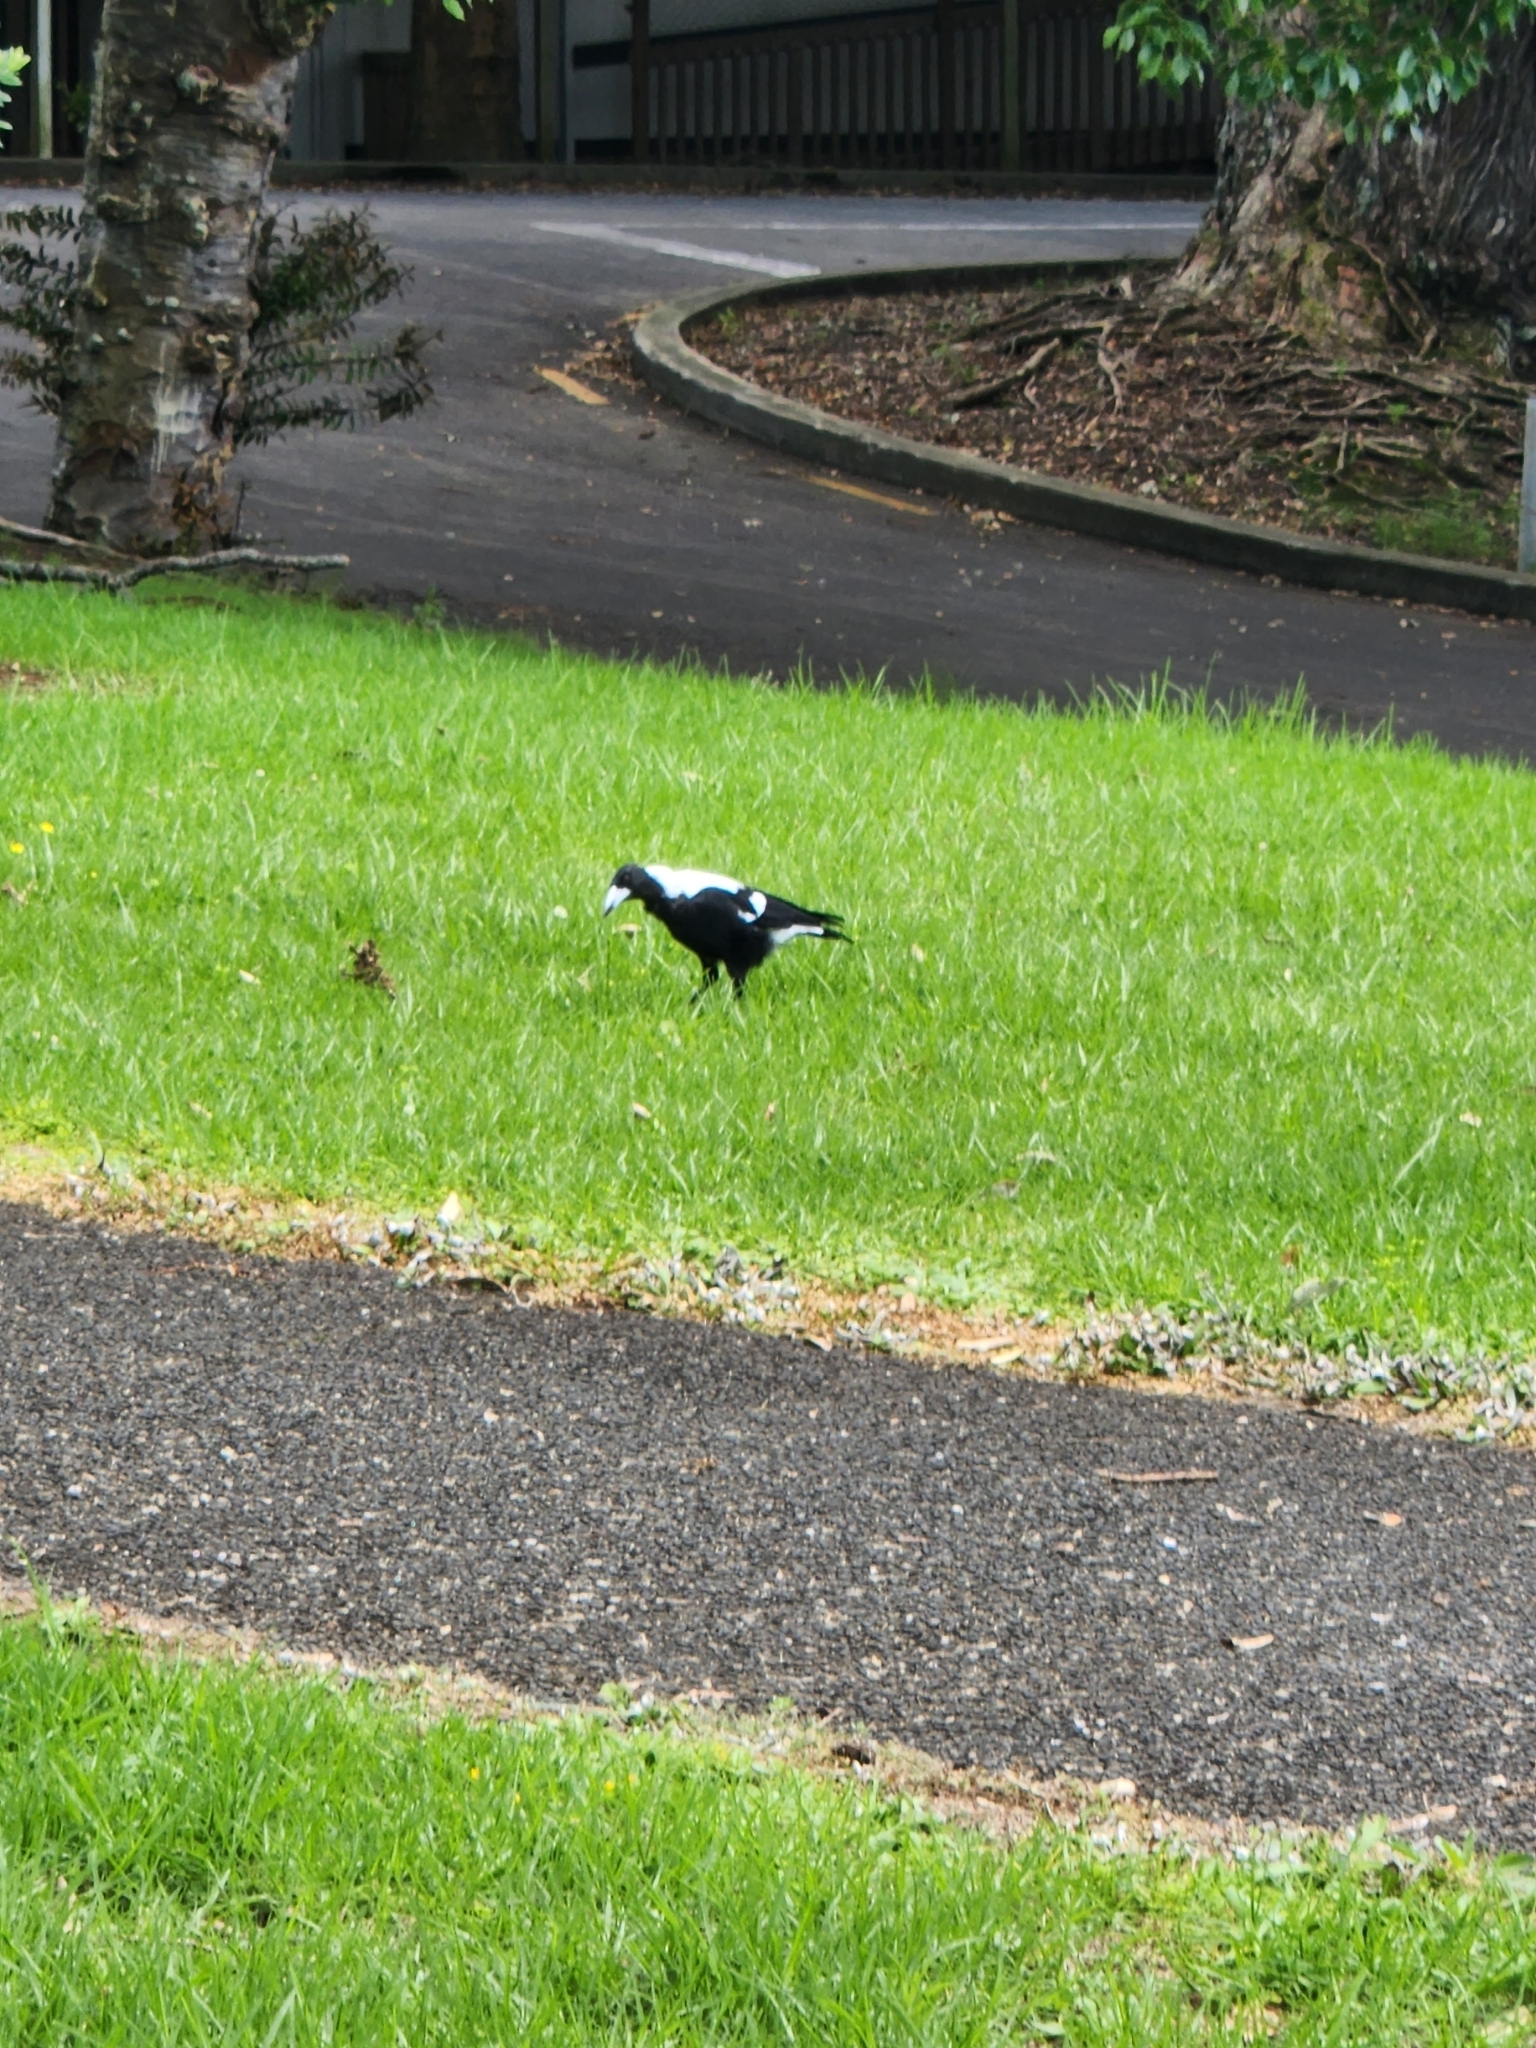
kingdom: Animalia
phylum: Chordata
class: Aves
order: Passeriformes
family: Cracticidae
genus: Gymnorhina
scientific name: Gymnorhina tibicen
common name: Australian magpie
